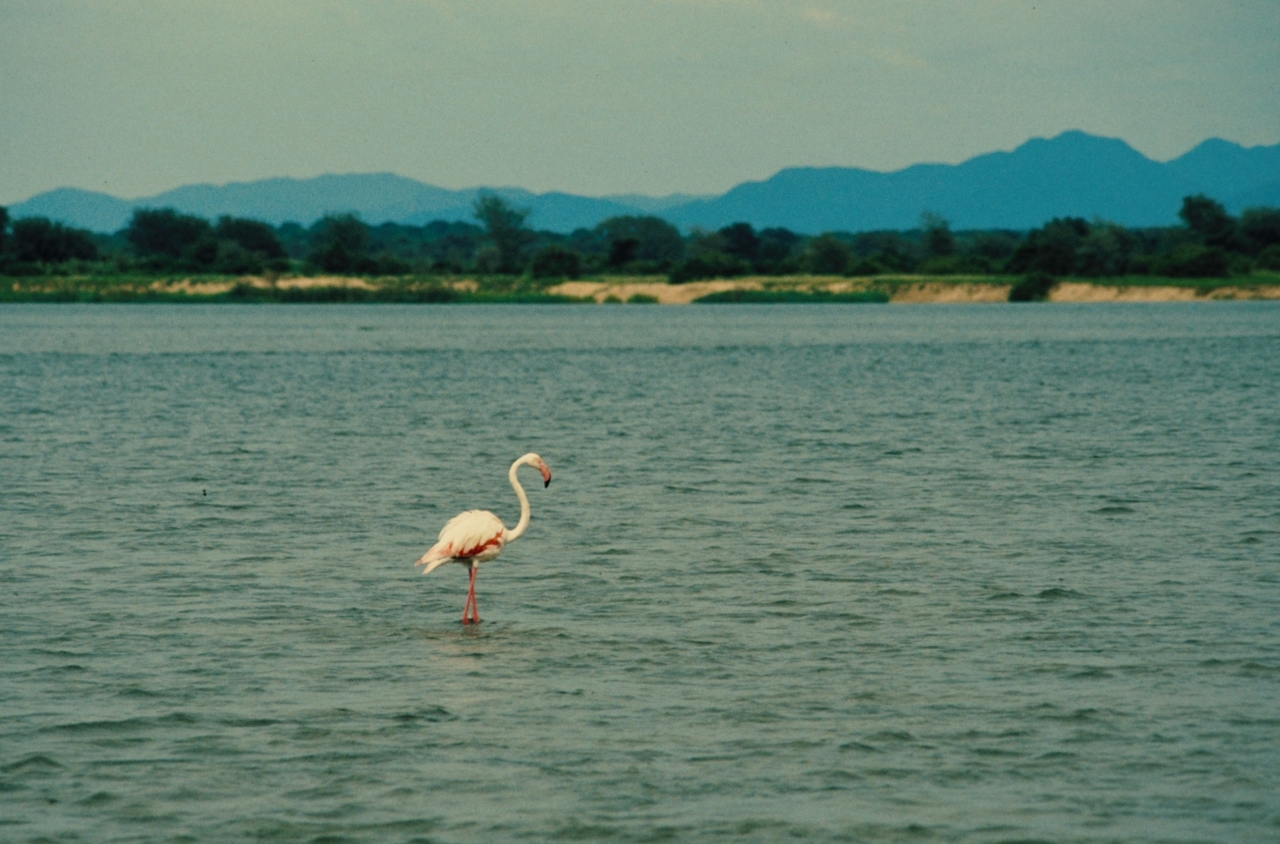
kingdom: Animalia
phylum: Chordata
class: Aves
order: Phoenicopteriformes
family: Phoenicopteridae
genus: Phoenicopterus
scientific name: Phoenicopterus roseus
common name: Greater flamingo
